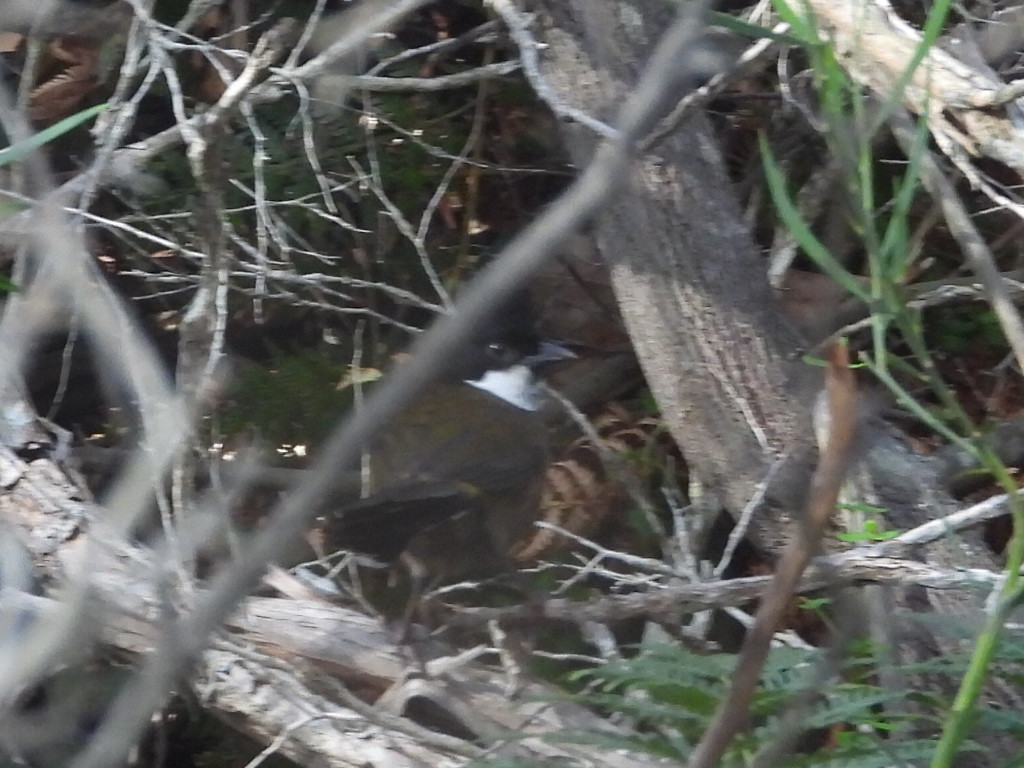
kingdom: Animalia
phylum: Chordata
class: Aves
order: Passeriformes
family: Psophodidae
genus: Psophodes
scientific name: Psophodes olivaceus
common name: Eastern whipbird
